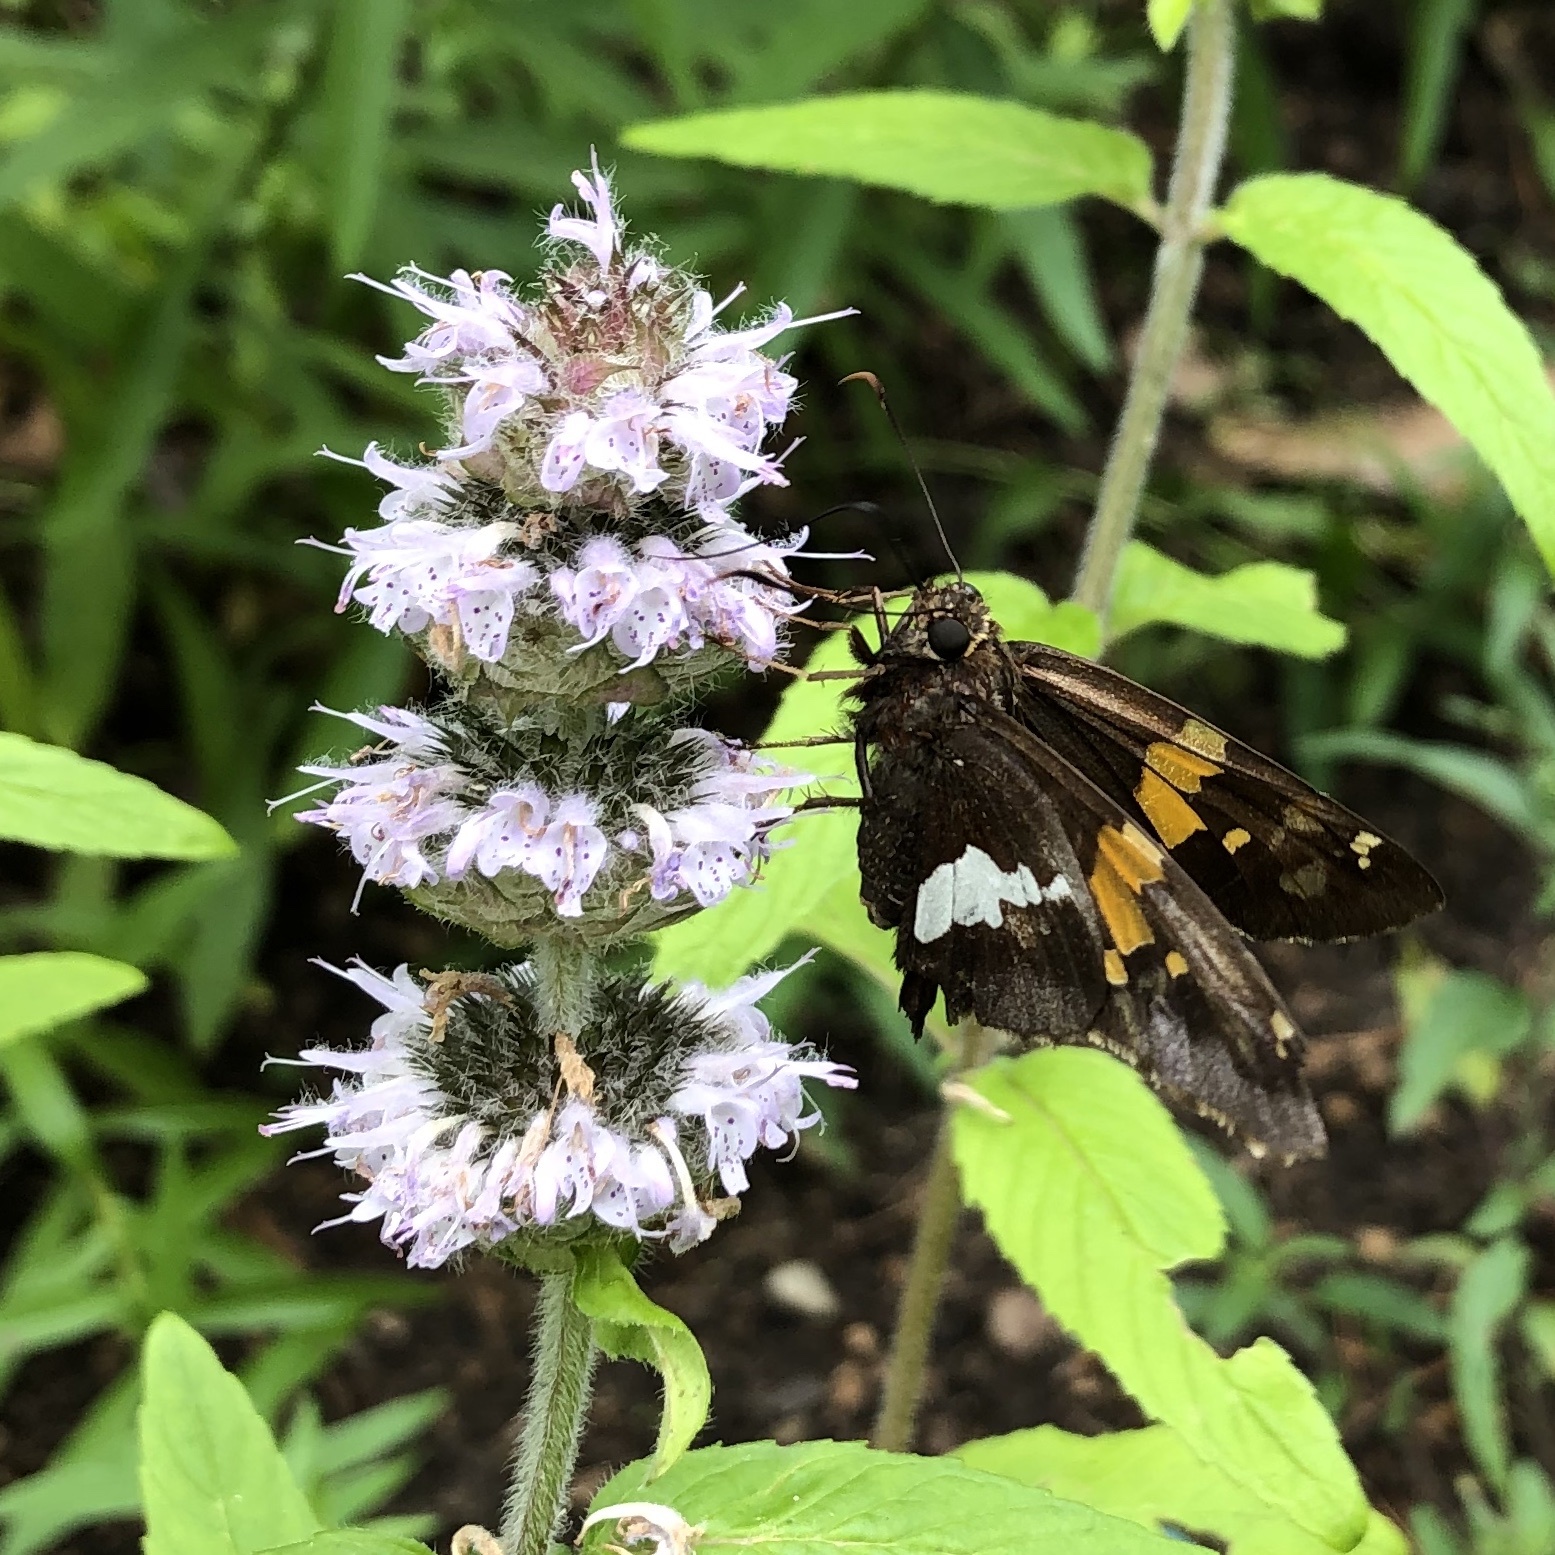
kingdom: Animalia
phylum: Arthropoda
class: Insecta
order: Lepidoptera
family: Hesperiidae
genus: Epargyreus
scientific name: Epargyreus clarus
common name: Silver-spotted skipper
